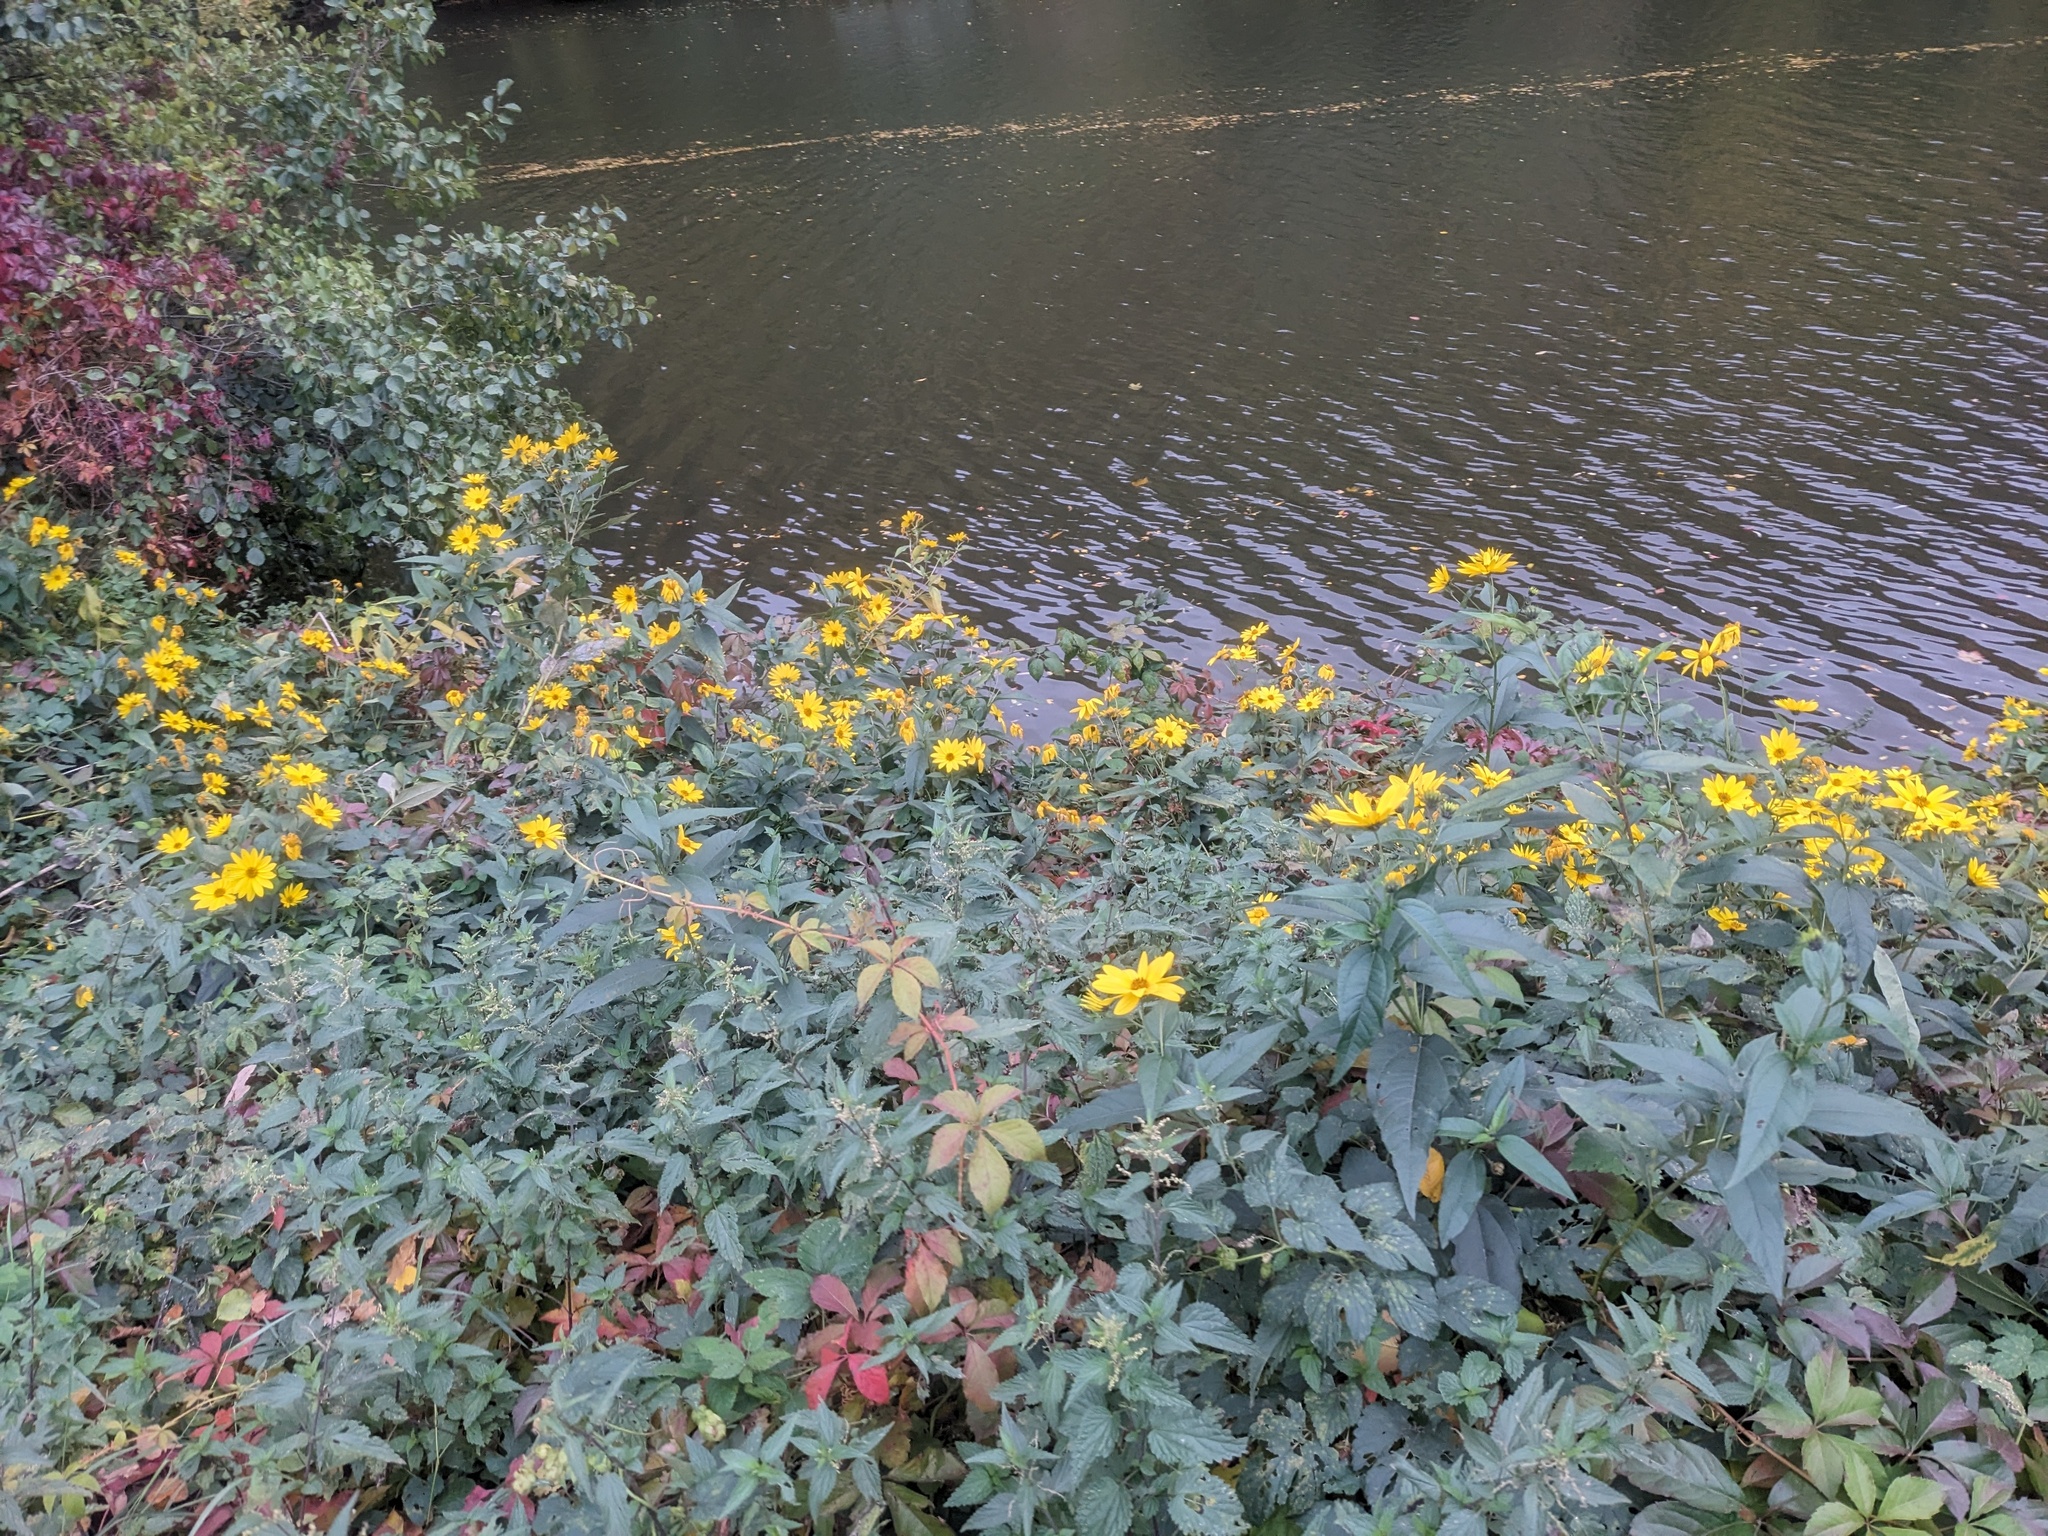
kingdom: Plantae
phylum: Tracheophyta
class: Magnoliopsida
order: Asterales
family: Asteraceae
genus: Helianthus
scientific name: Helianthus tuberosus
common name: Jerusalem artichoke
